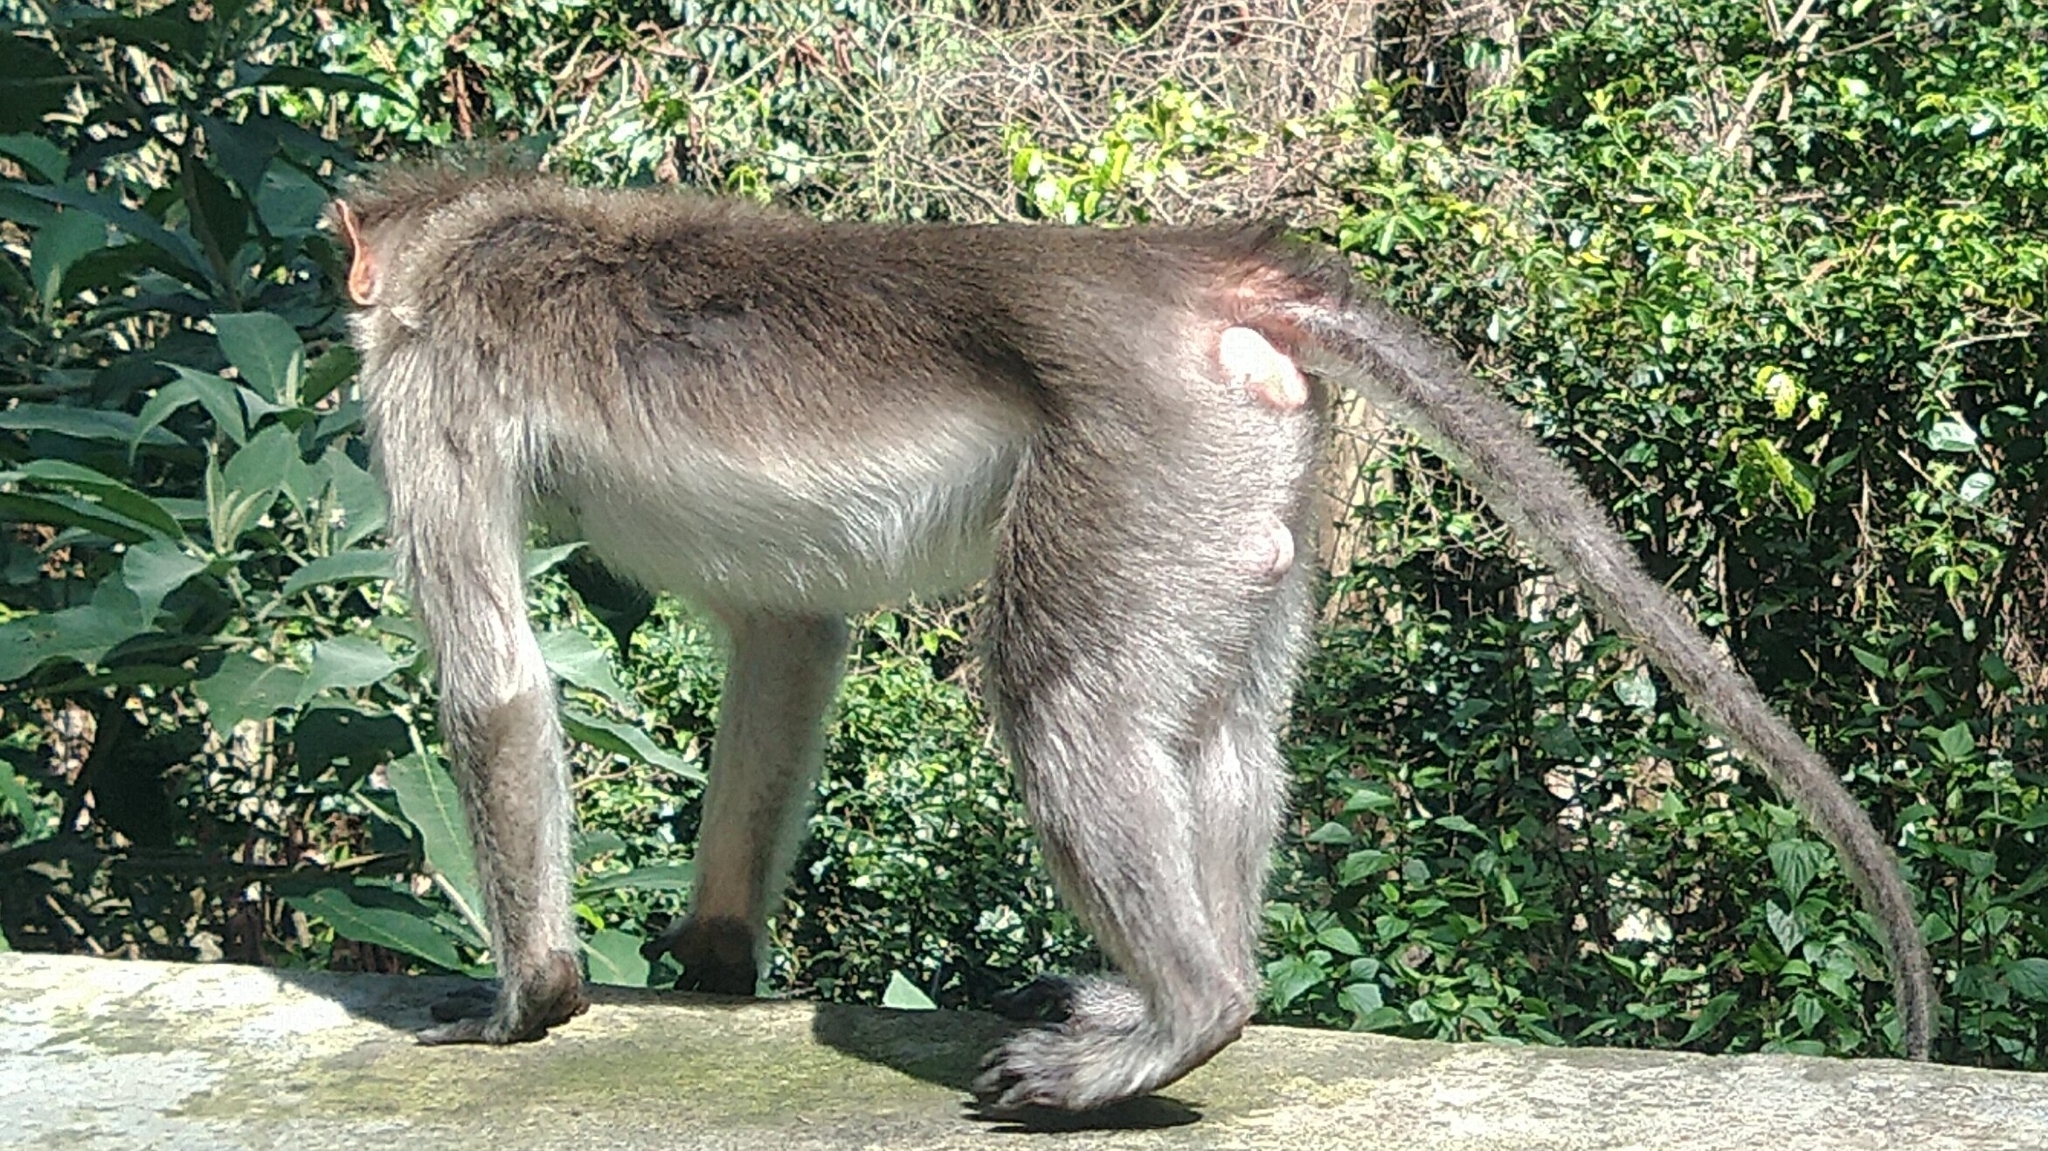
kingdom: Animalia
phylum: Chordata
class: Mammalia
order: Primates
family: Cercopithecidae
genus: Macaca
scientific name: Macaca radiata
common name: Bonnet macaque
